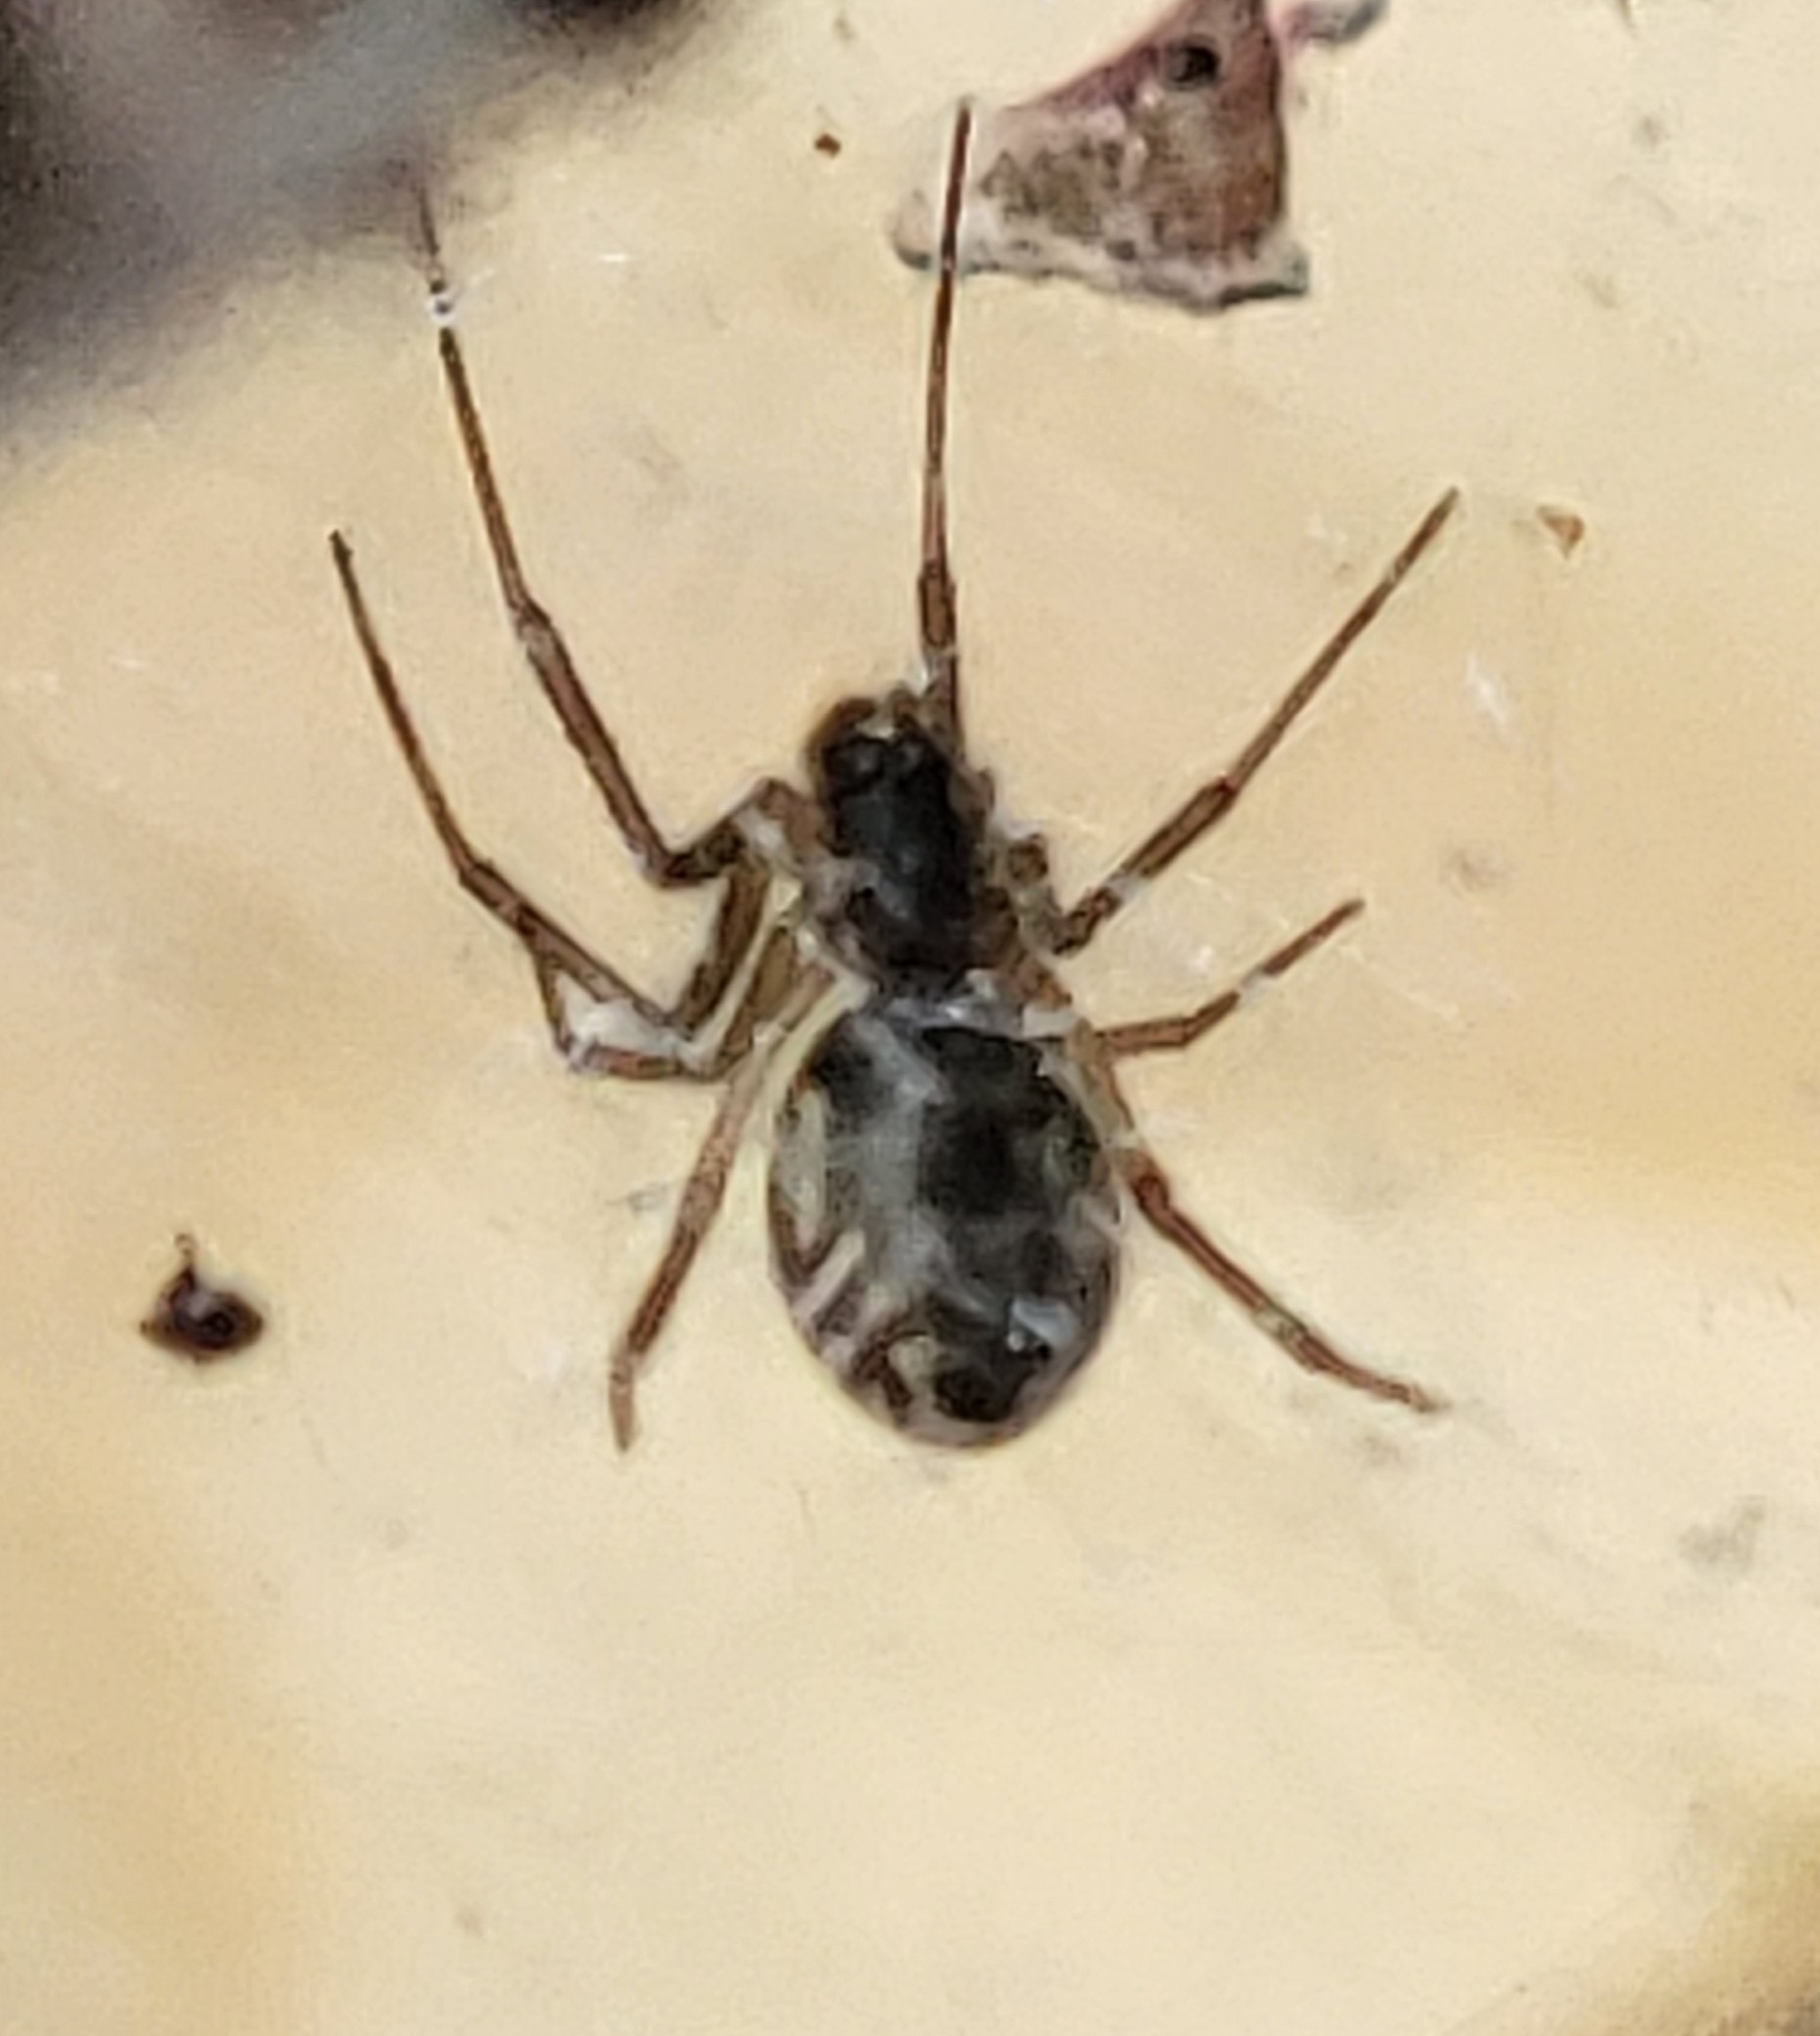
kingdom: Animalia
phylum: Arthropoda
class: Arachnida
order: Araneae
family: Linyphiidae
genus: Frontinella
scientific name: Frontinella pyramitela
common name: Bowl-and-doily spider
